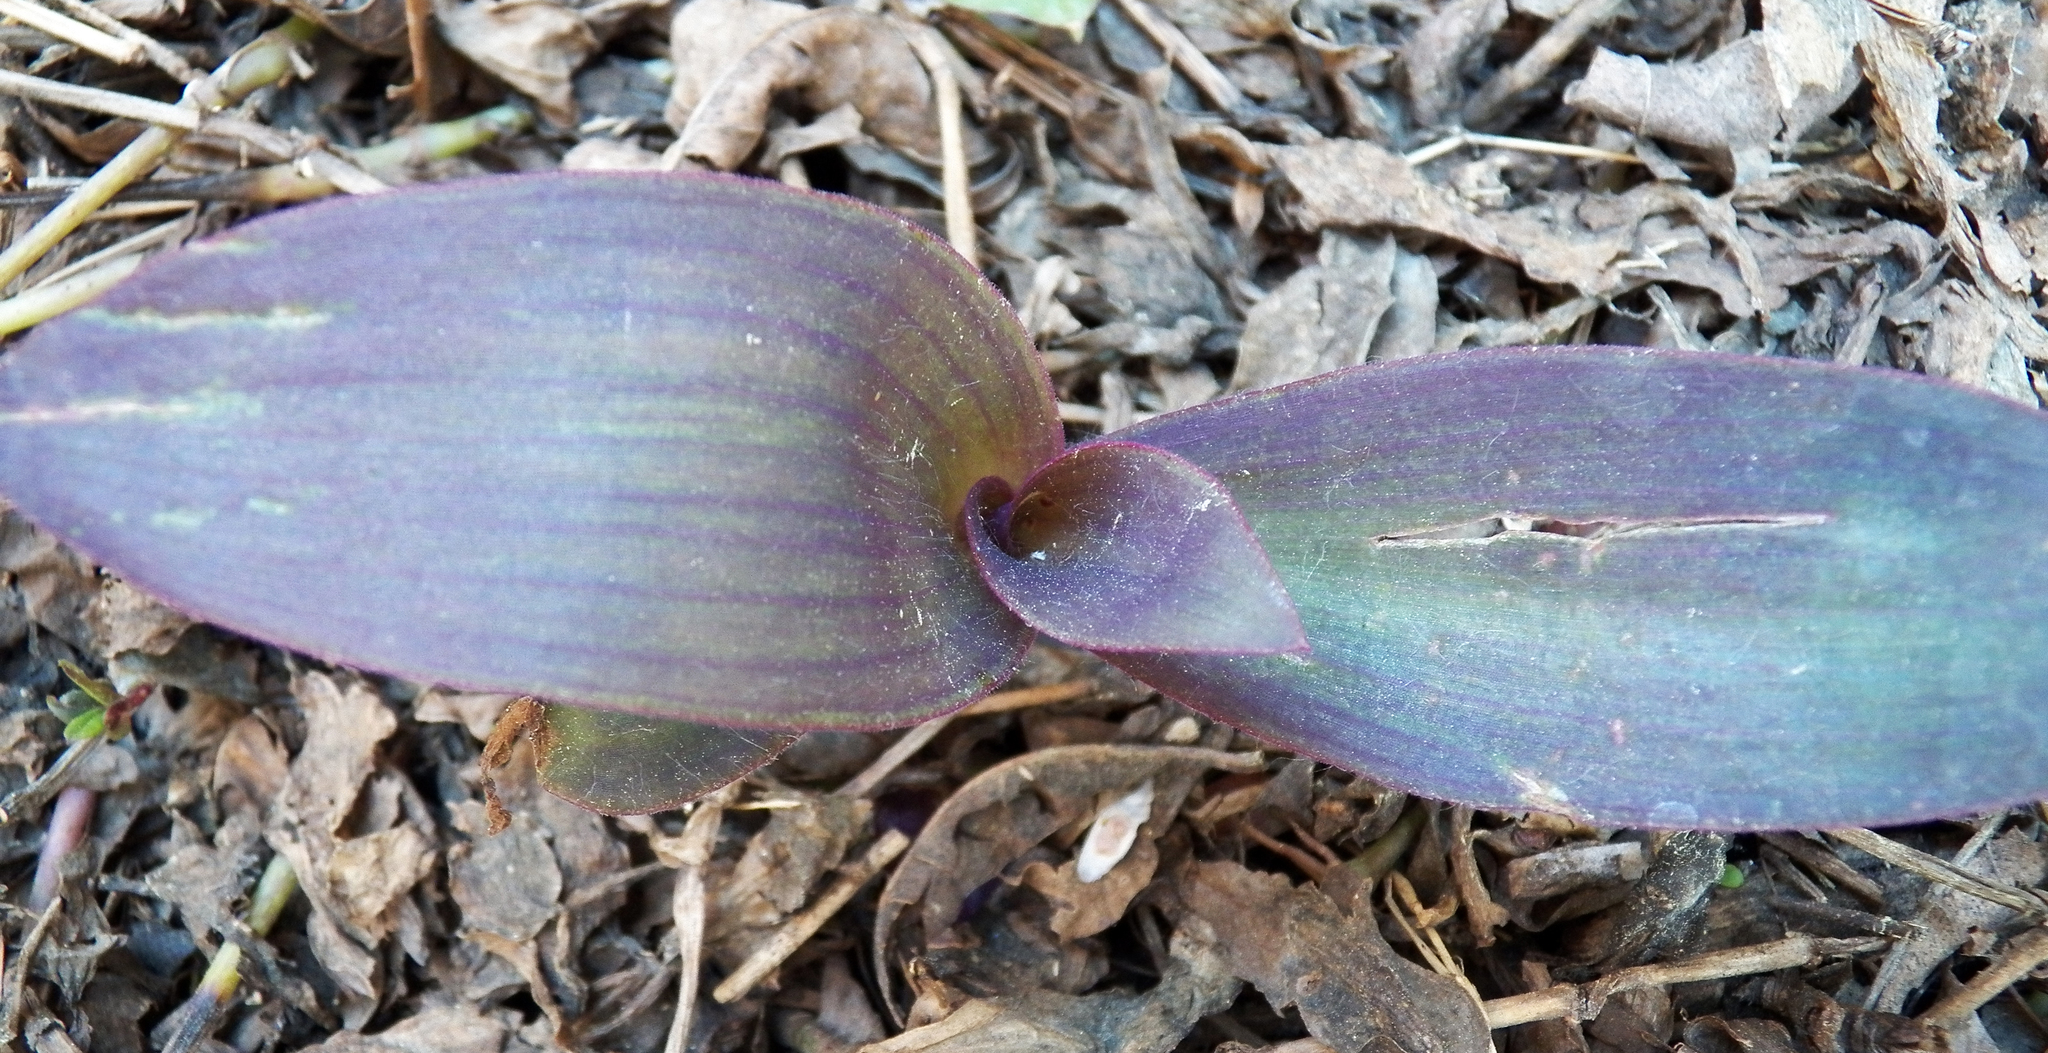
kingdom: Plantae
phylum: Tracheophyta
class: Liliopsida
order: Commelinales
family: Commelinaceae
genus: Tradescantia
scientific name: Tradescantia pallida
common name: Purpleheart
